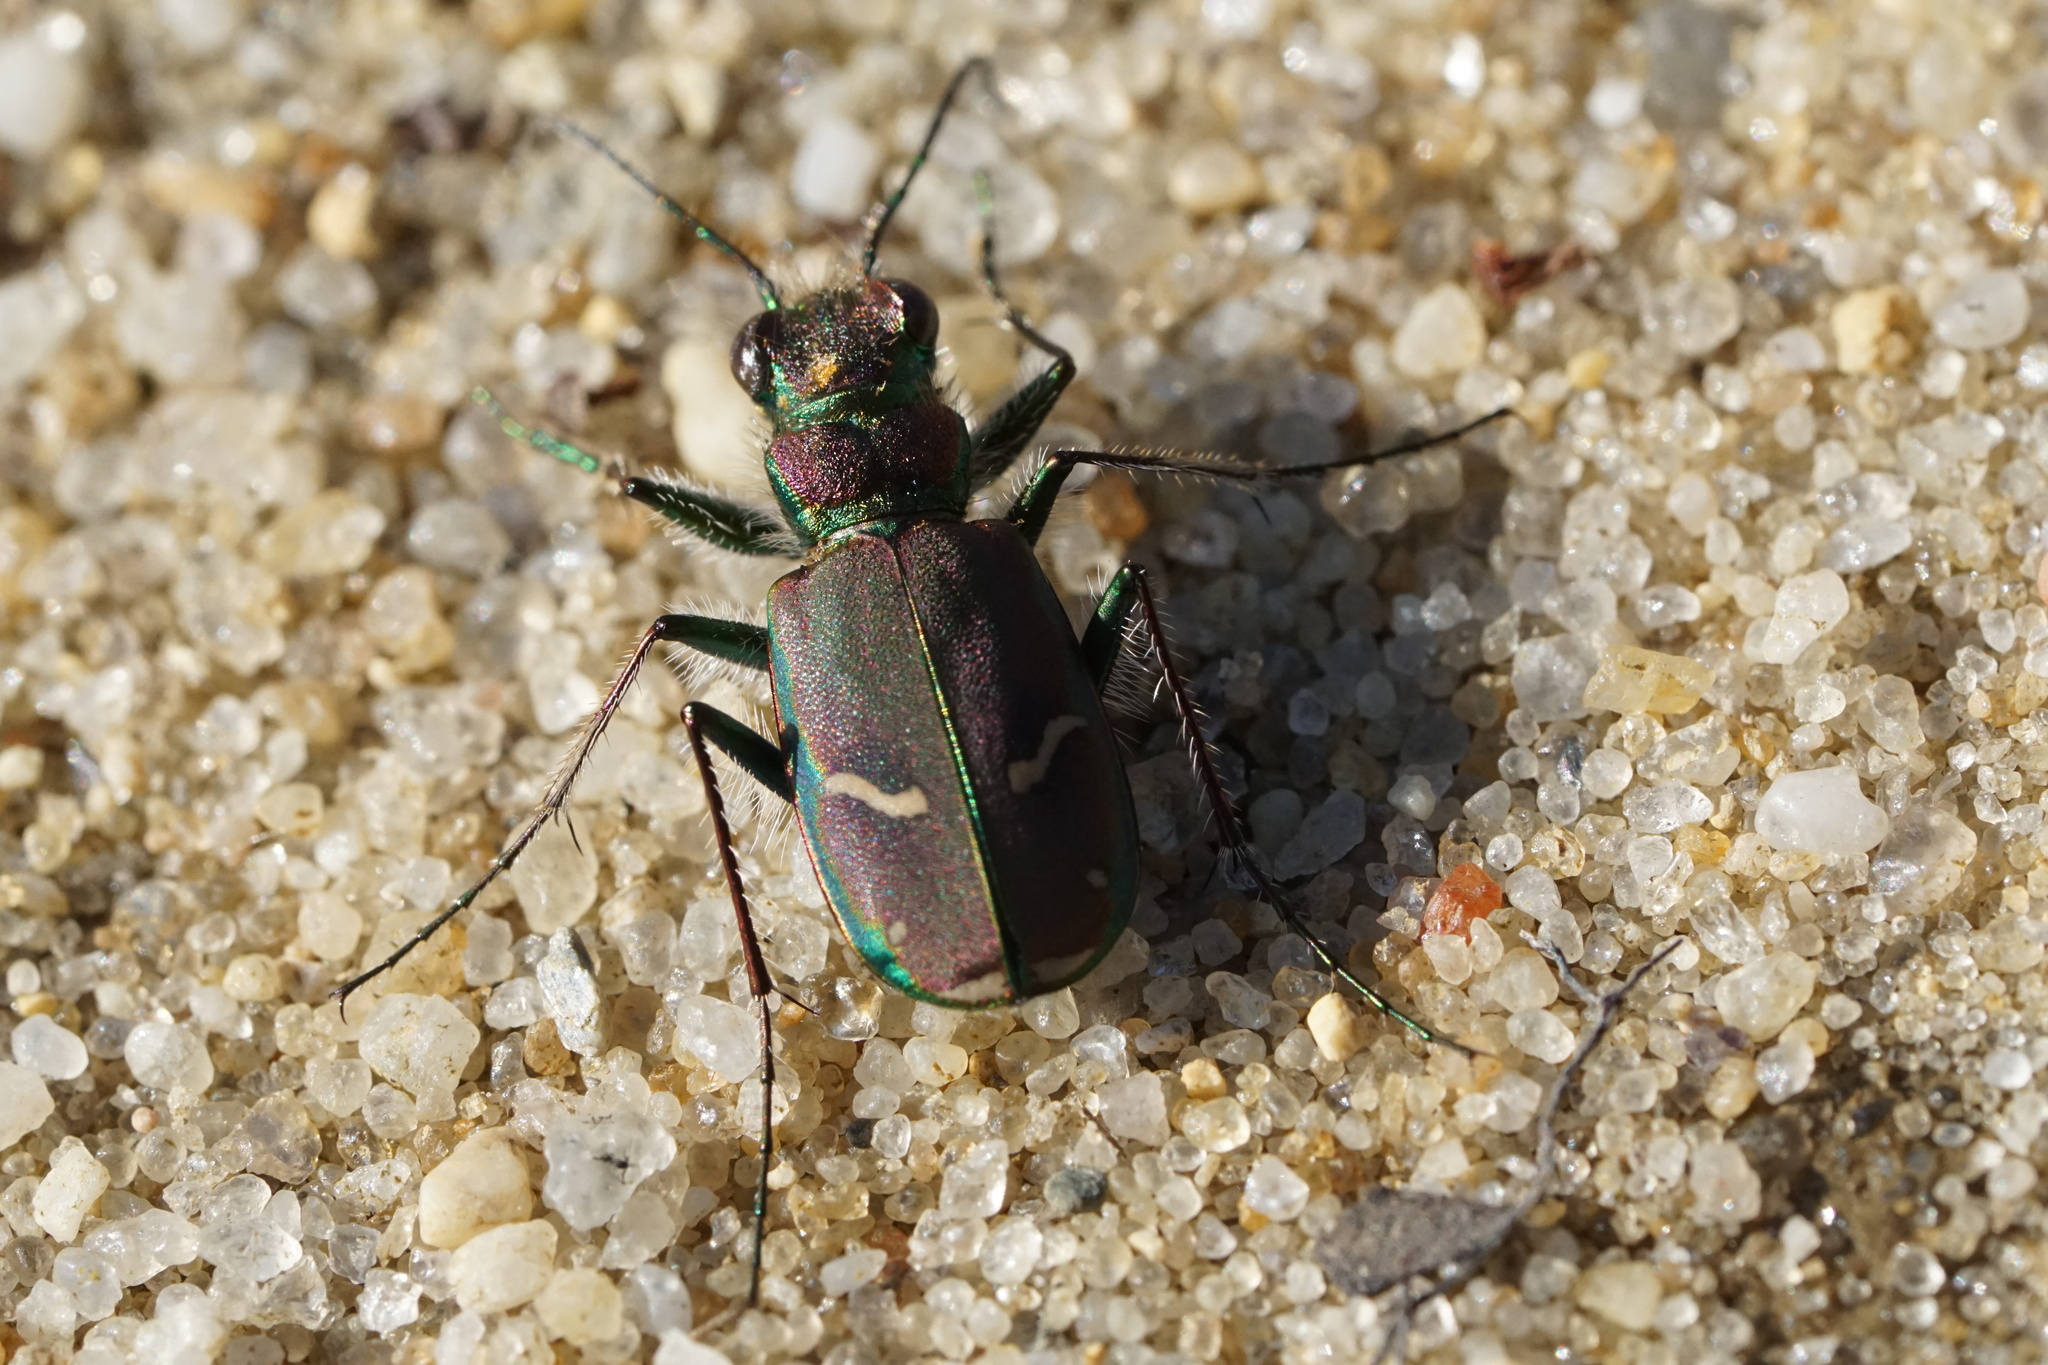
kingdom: Animalia
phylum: Arthropoda
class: Insecta
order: Coleoptera
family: Carabidae
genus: Cicindela
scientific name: Cicindela purpurea
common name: Cow path tiger beetle
